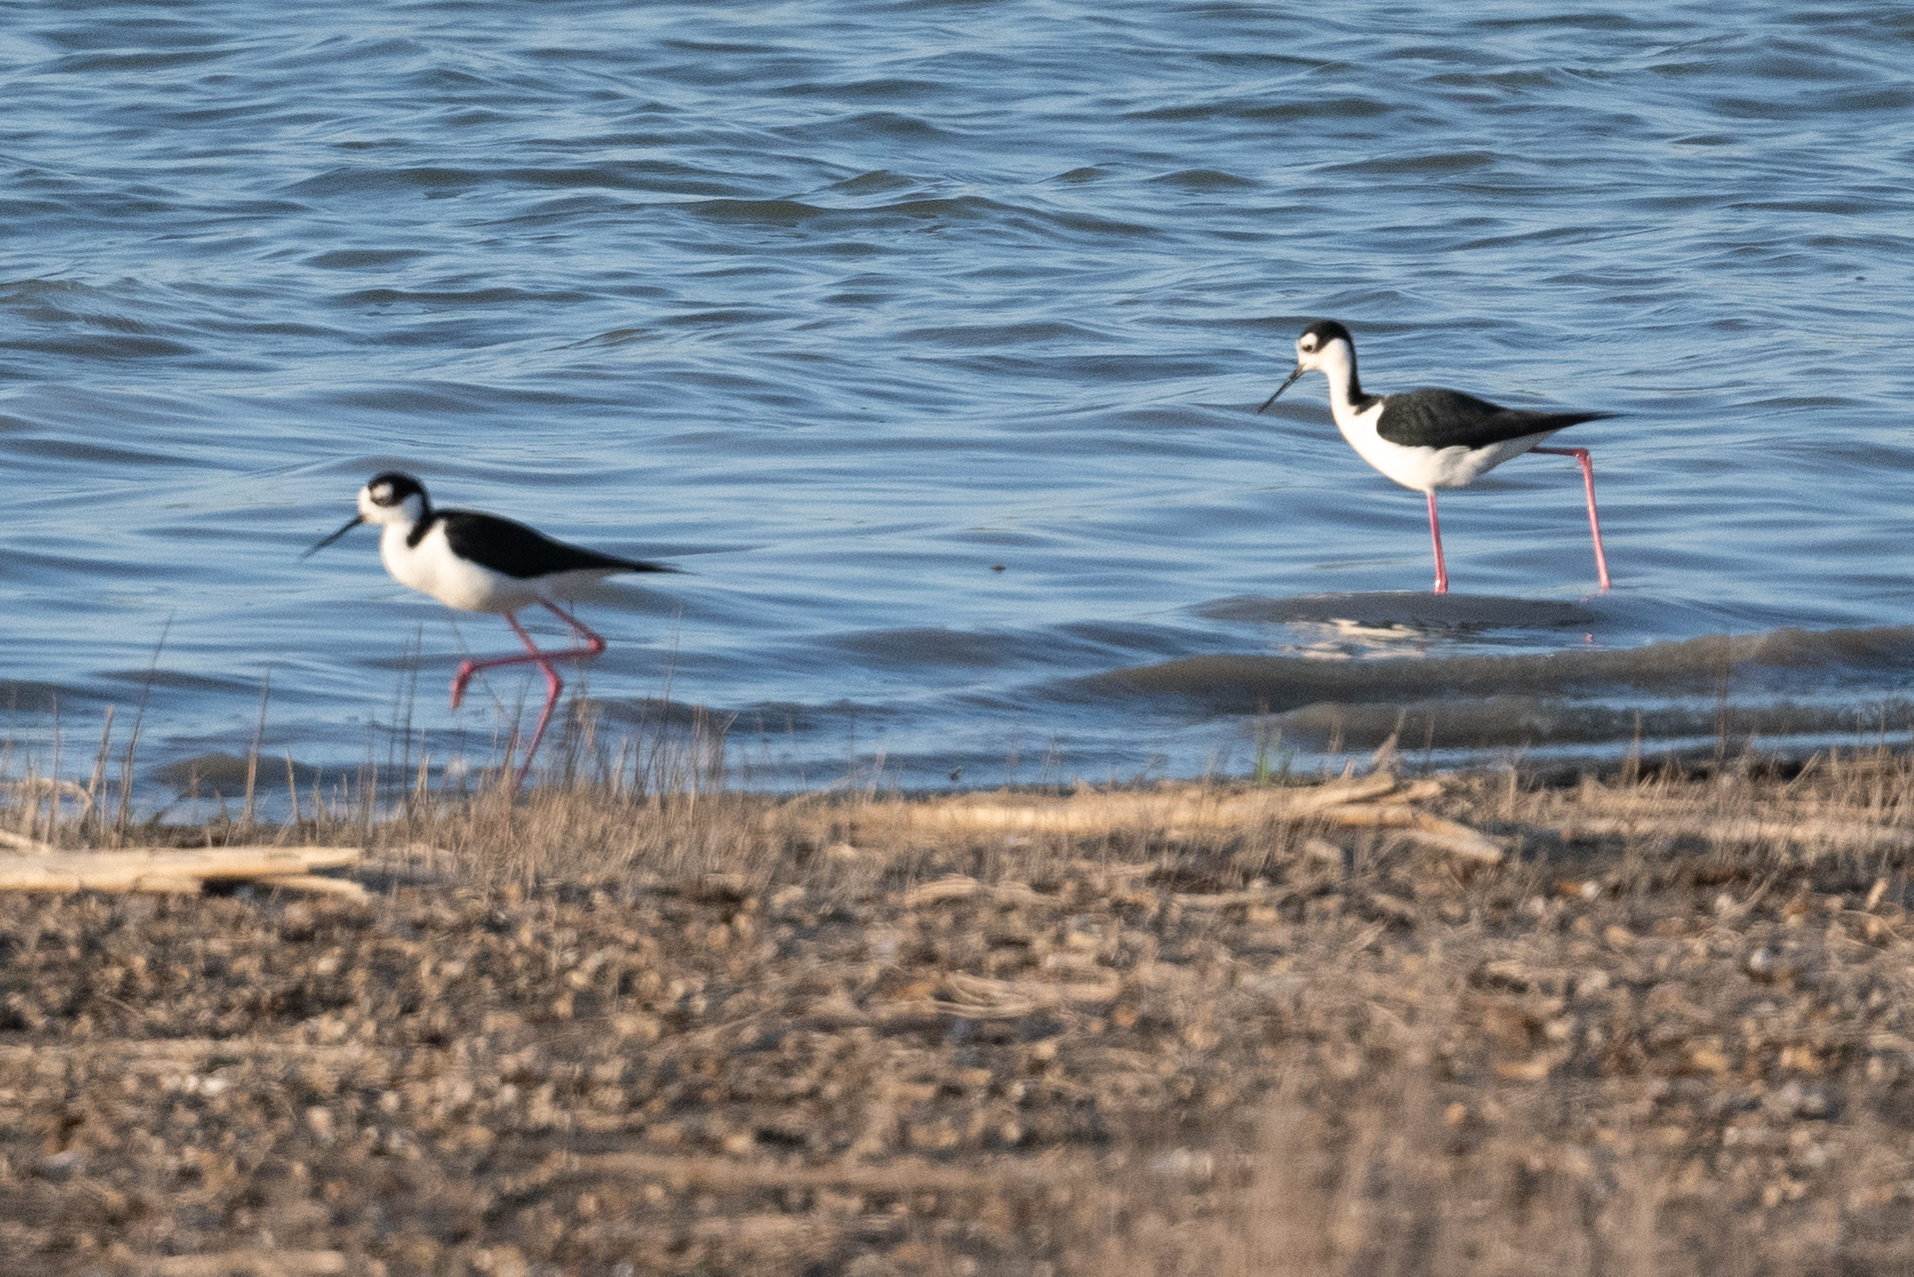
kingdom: Animalia
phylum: Chordata
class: Aves
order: Charadriiformes
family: Recurvirostridae
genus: Himantopus
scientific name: Himantopus mexicanus
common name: Black-necked stilt
